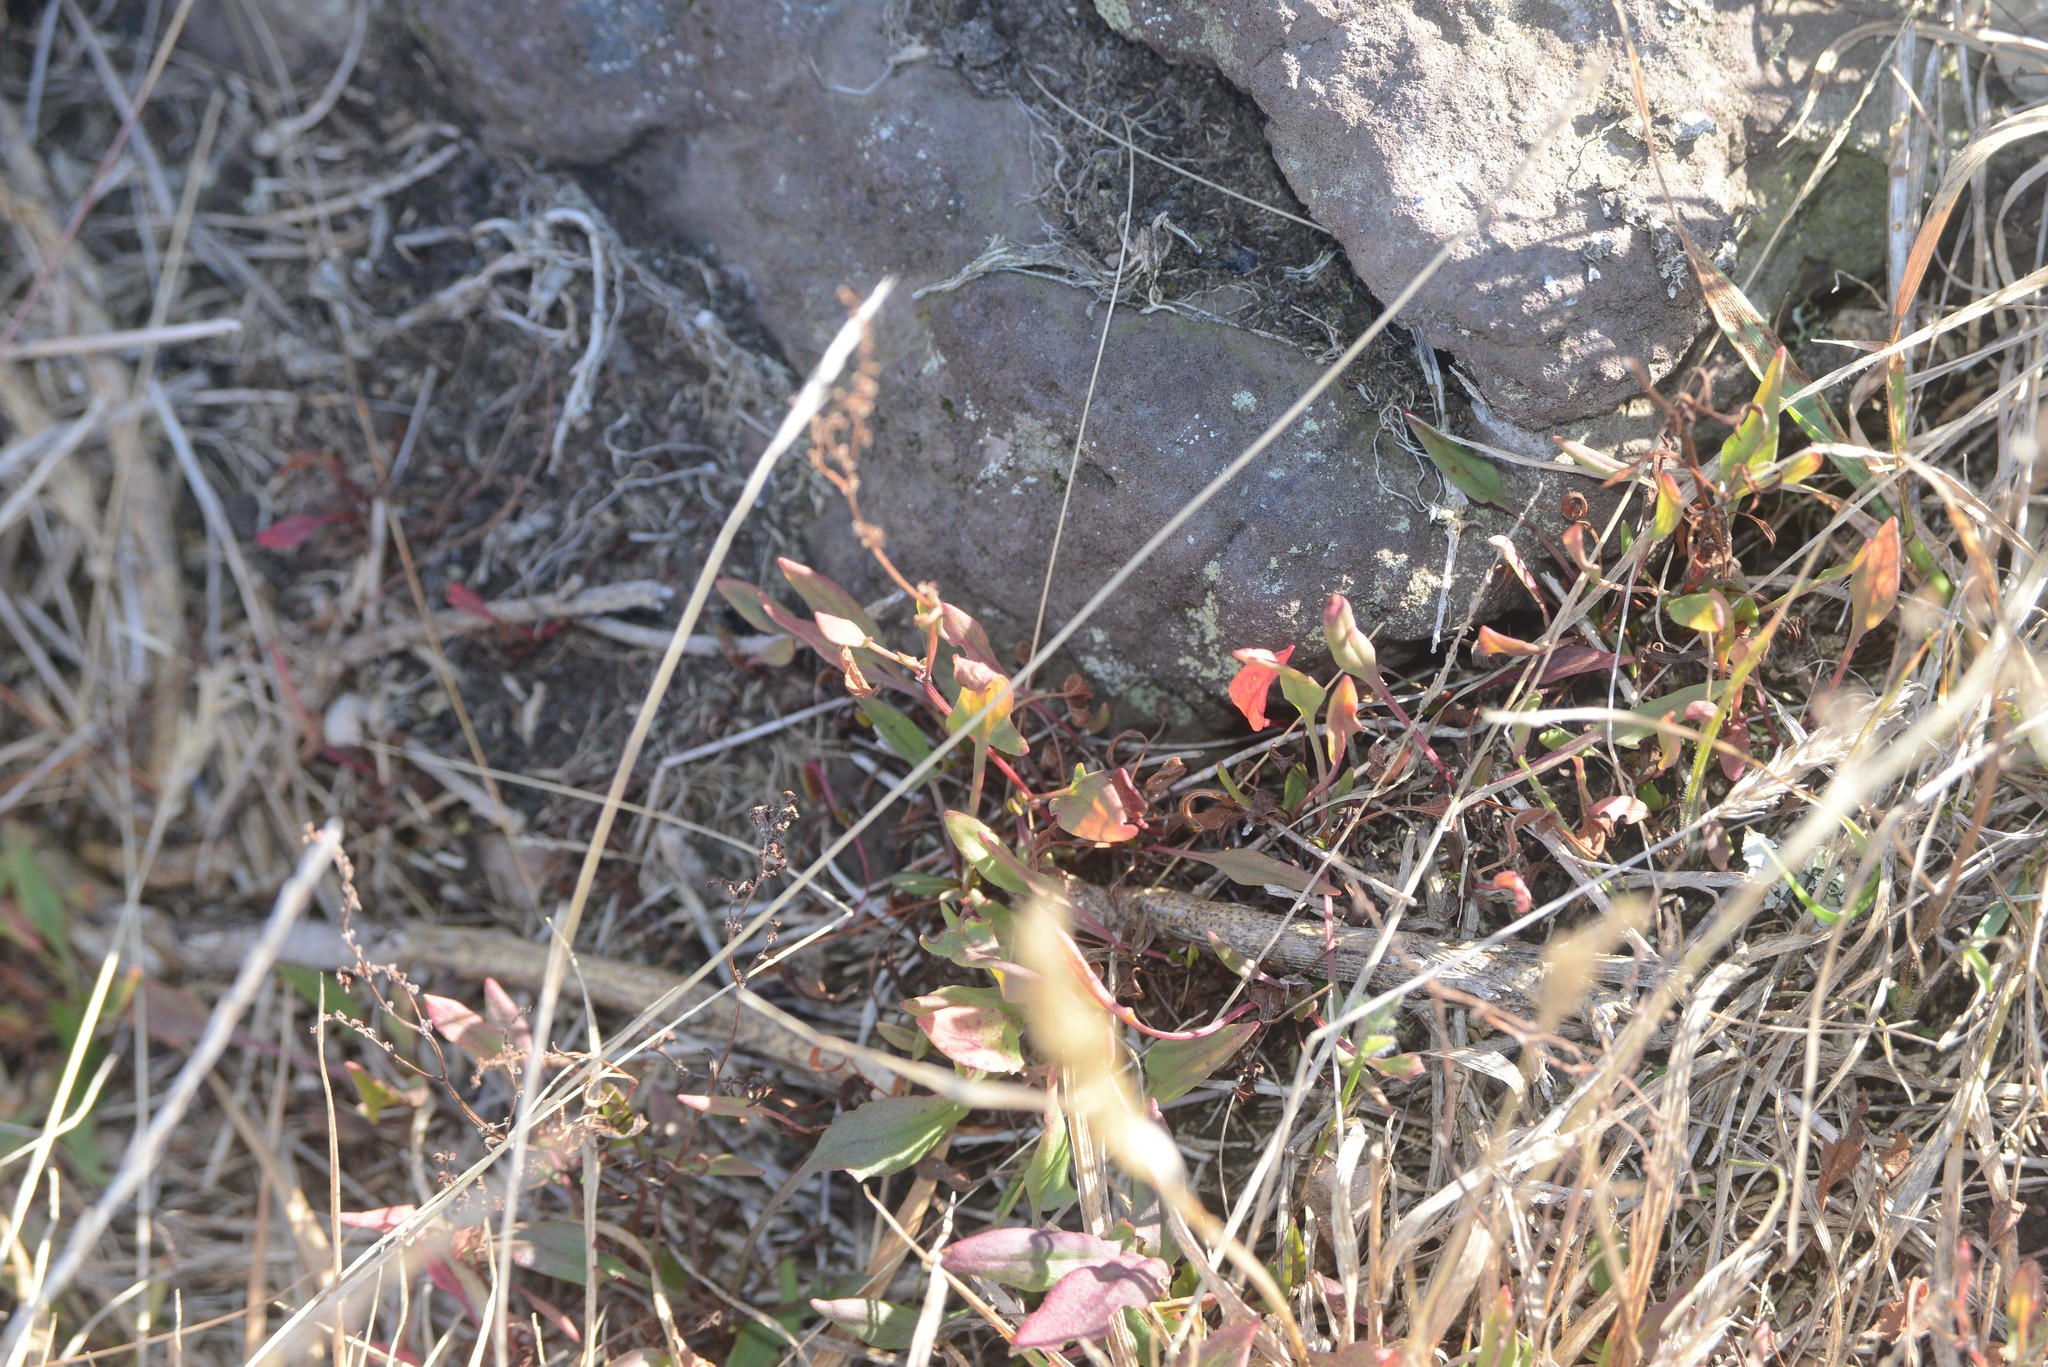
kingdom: Plantae
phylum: Tracheophyta
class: Magnoliopsida
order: Caryophyllales
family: Polygonaceae
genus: Rumex
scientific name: Rumex acetosella
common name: Common sheep sorrel
